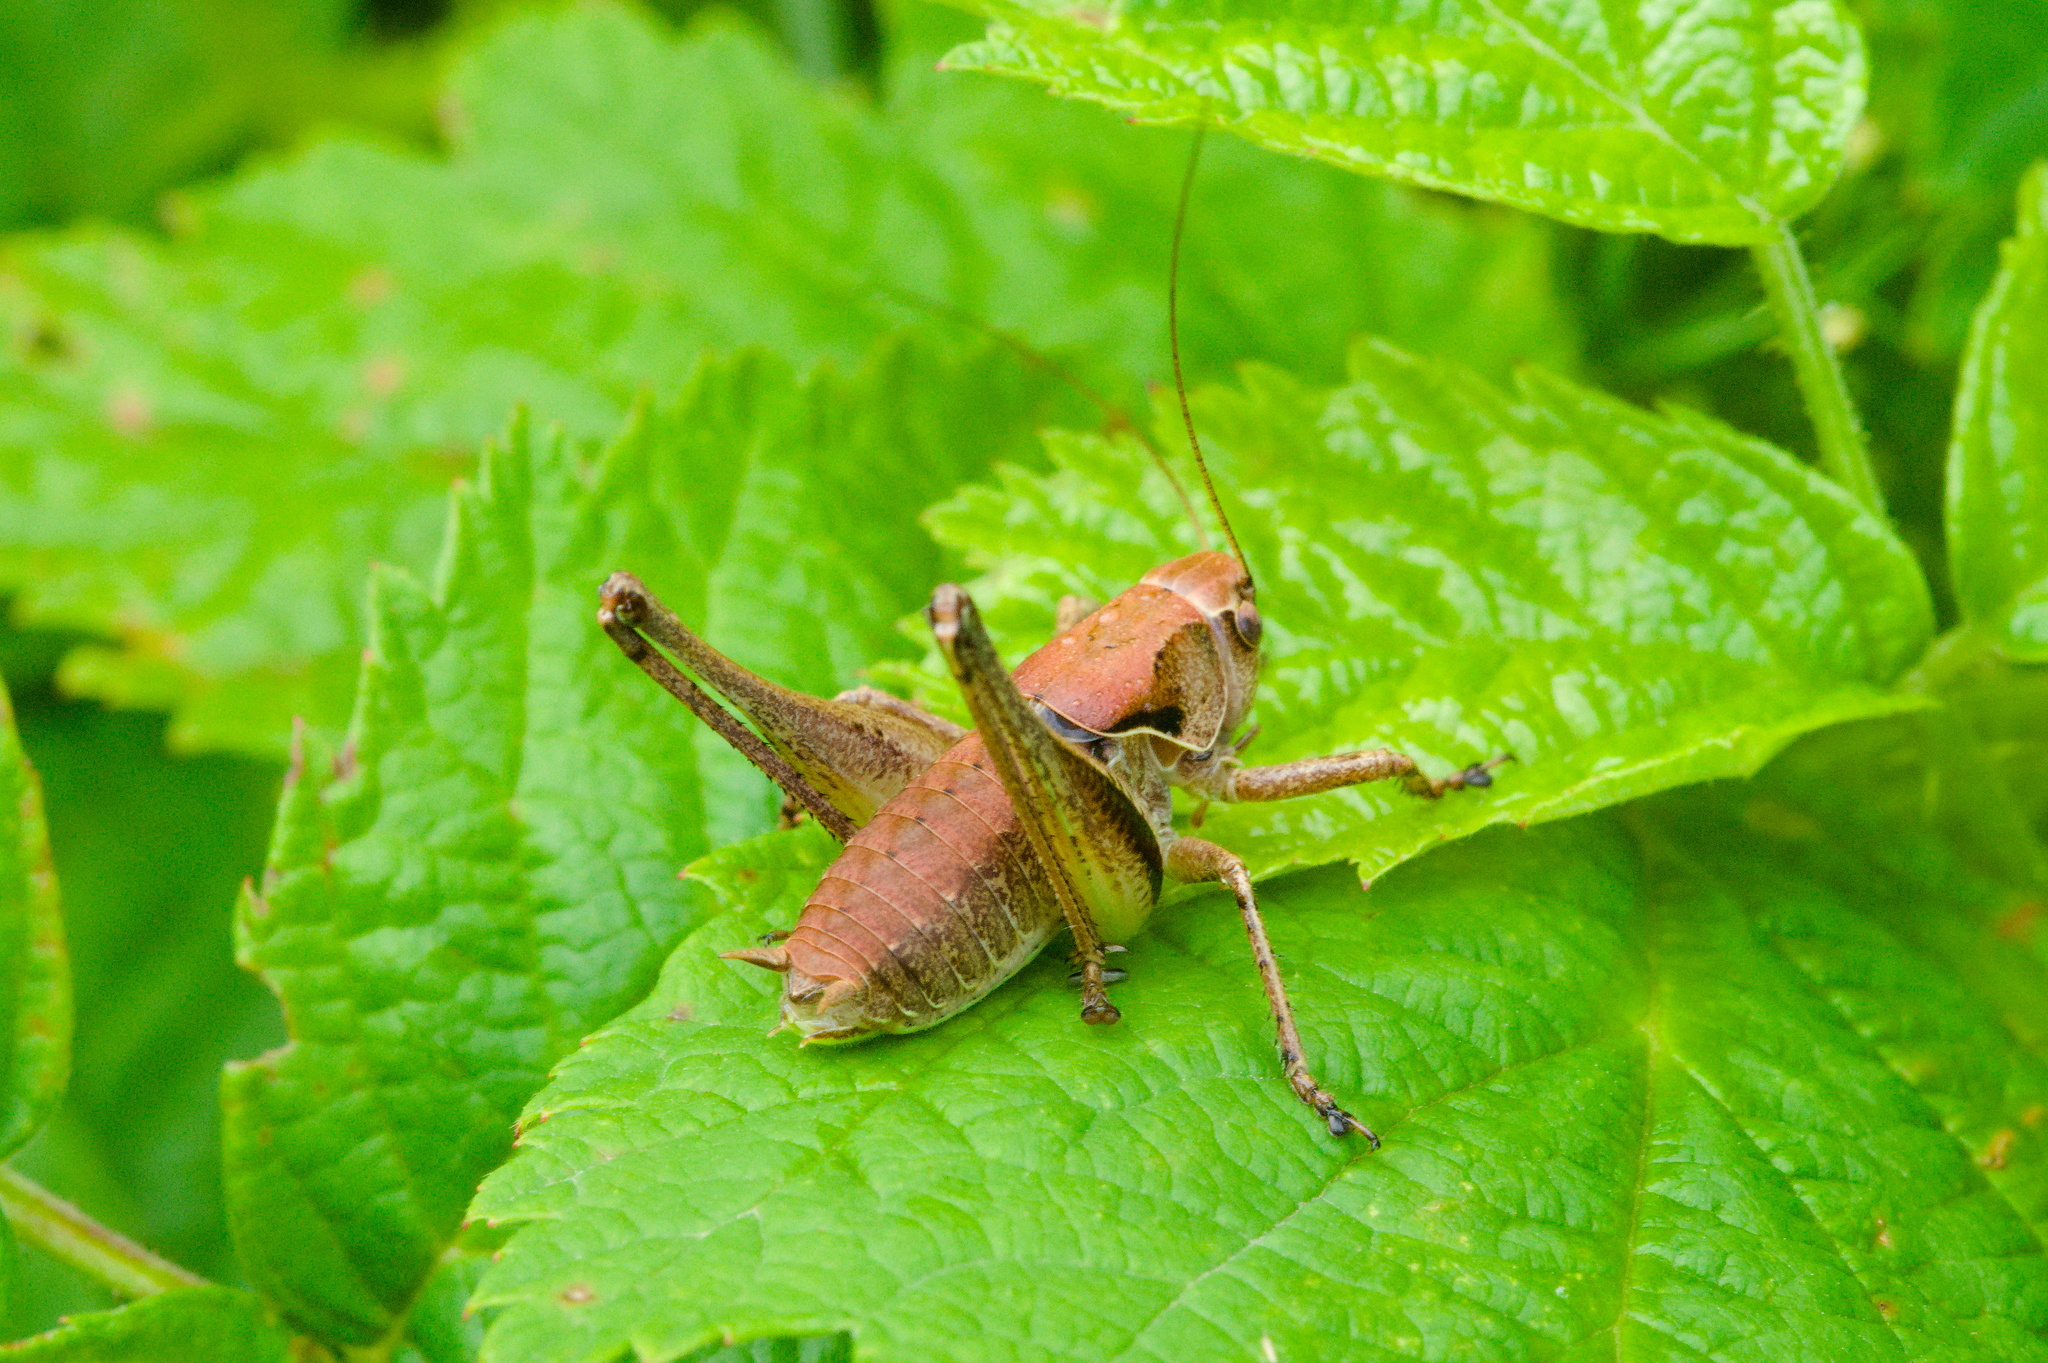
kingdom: Animalia
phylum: Arthropoda
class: Insecta
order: Orthoptera
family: Tettigoniidae
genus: Pholidoptera
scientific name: Pholidoptera griseoaptera
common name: Dark bush-cricket
